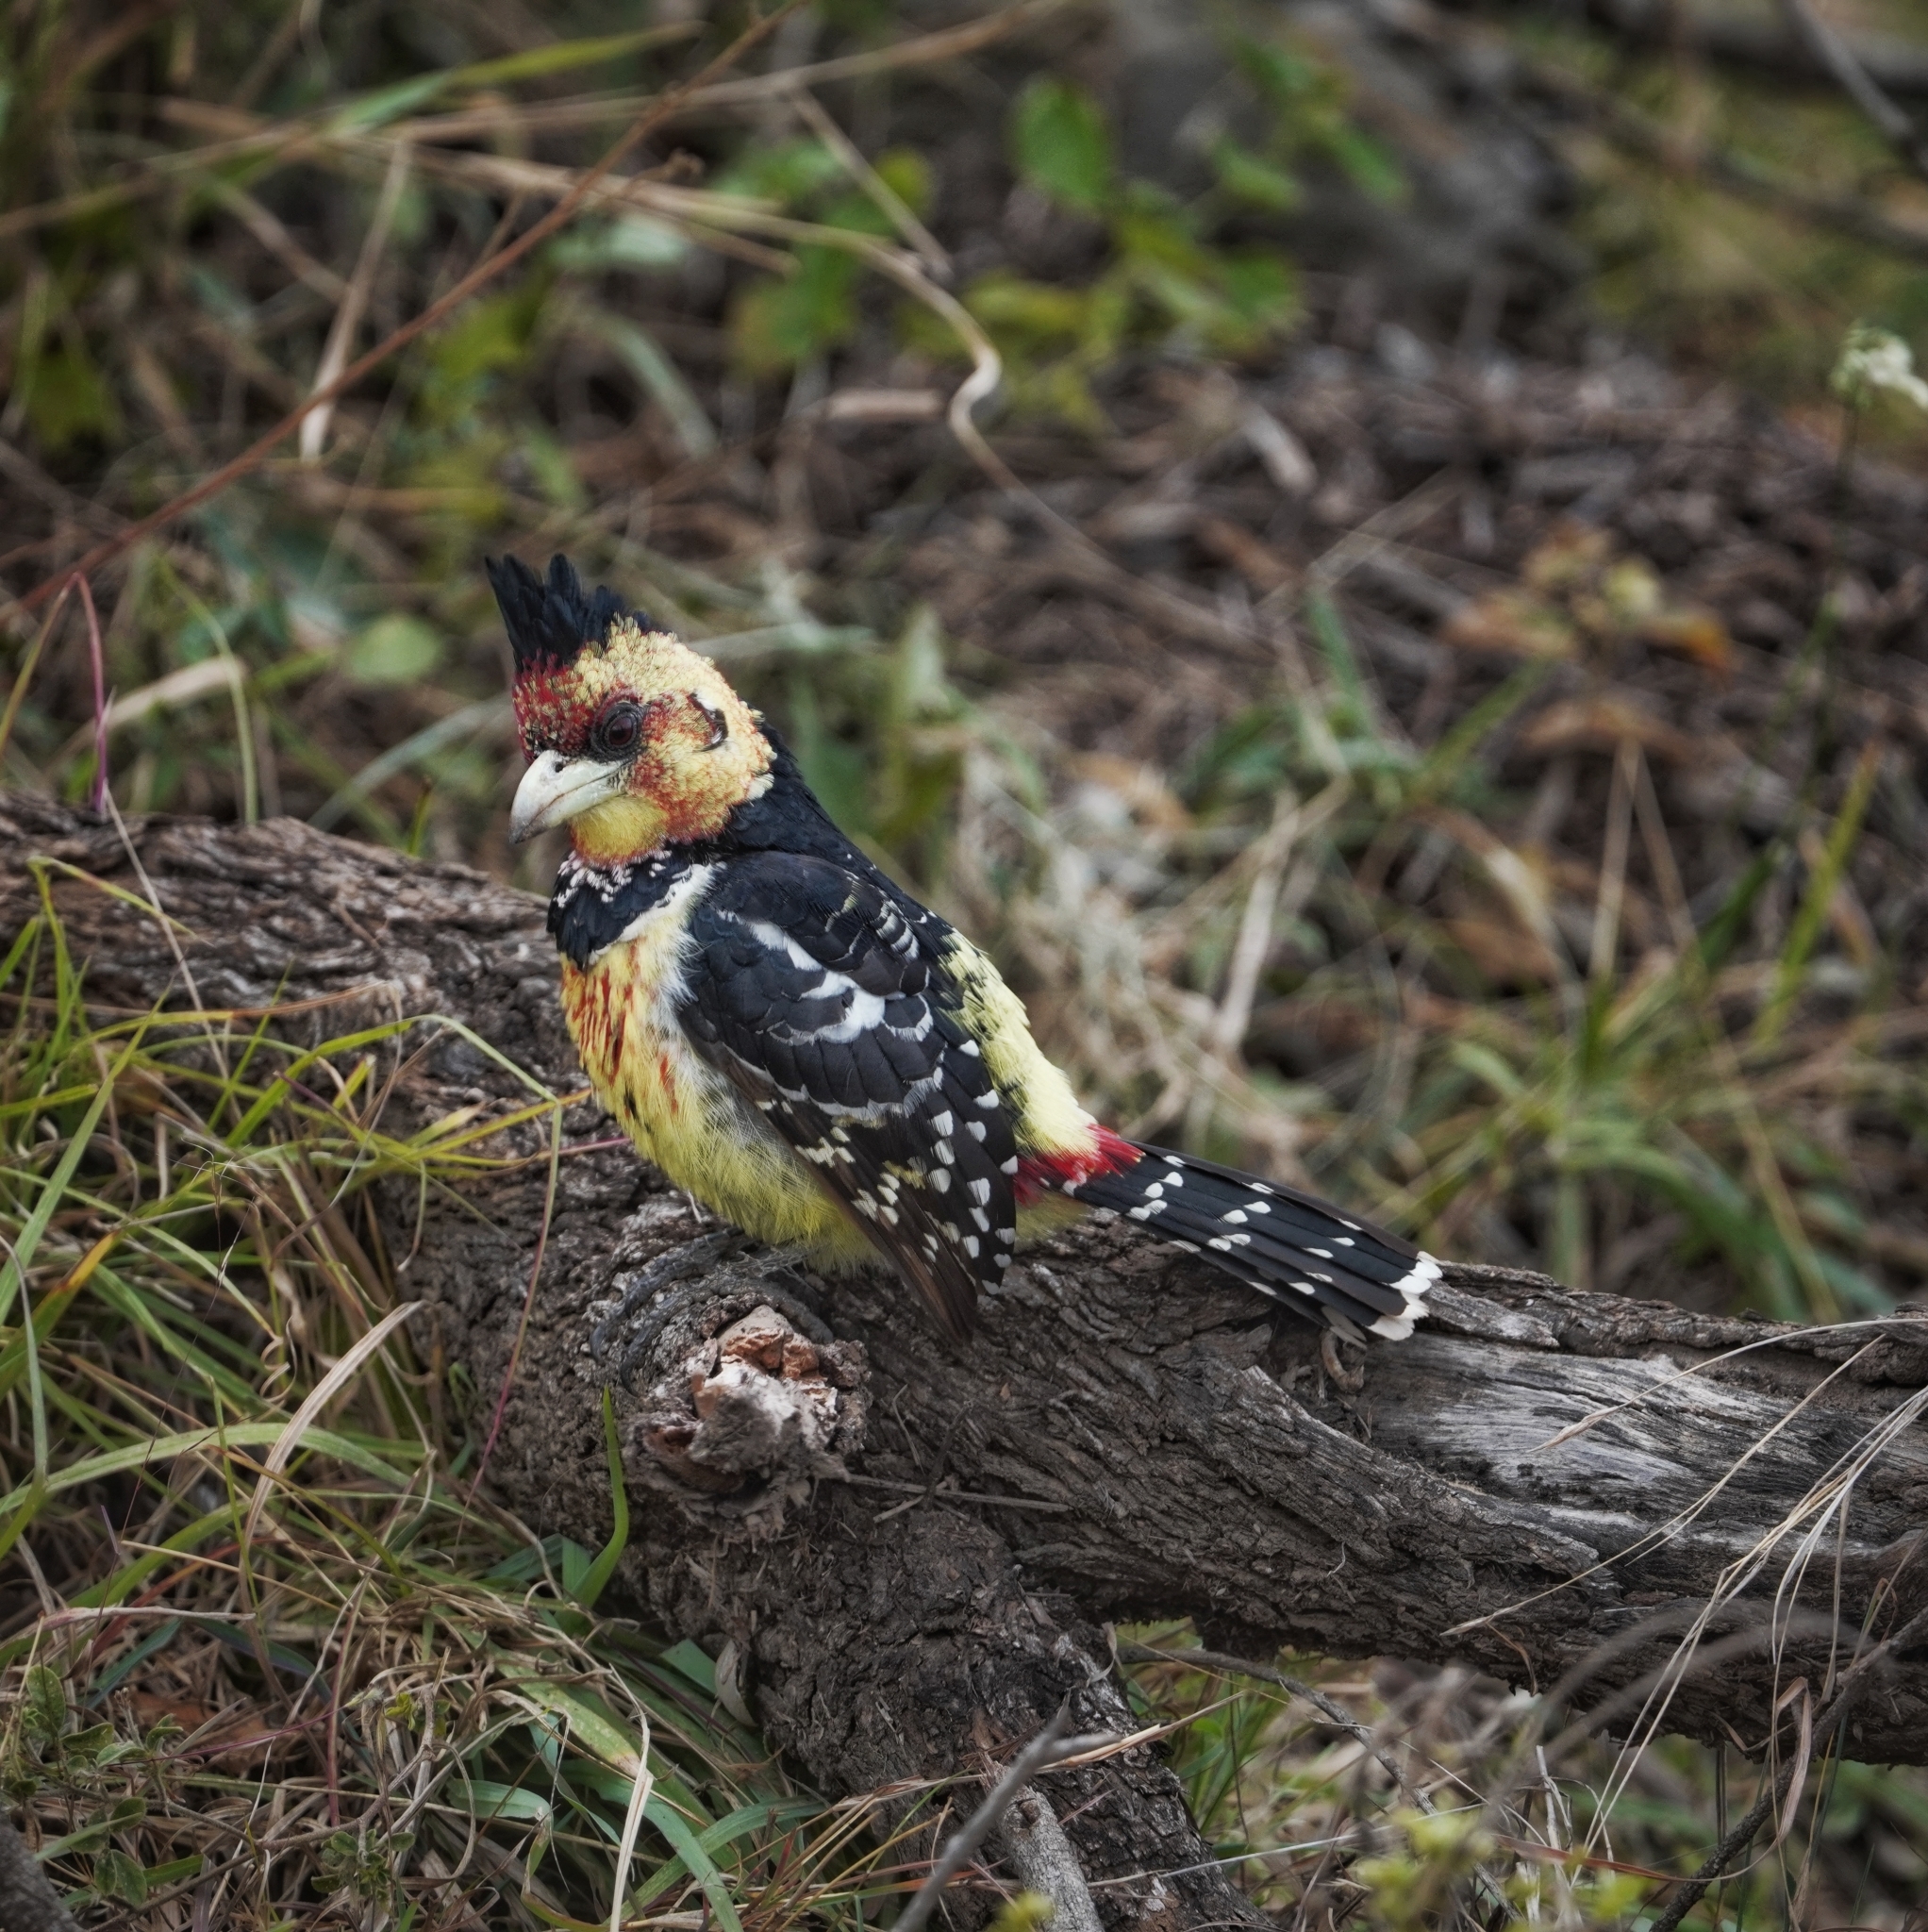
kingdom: Animalia
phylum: Chordata
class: Aves
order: Piciformes
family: Lybiidae
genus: Trachyphonus
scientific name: Trachyphonus vaillantii
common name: Crested barbet
